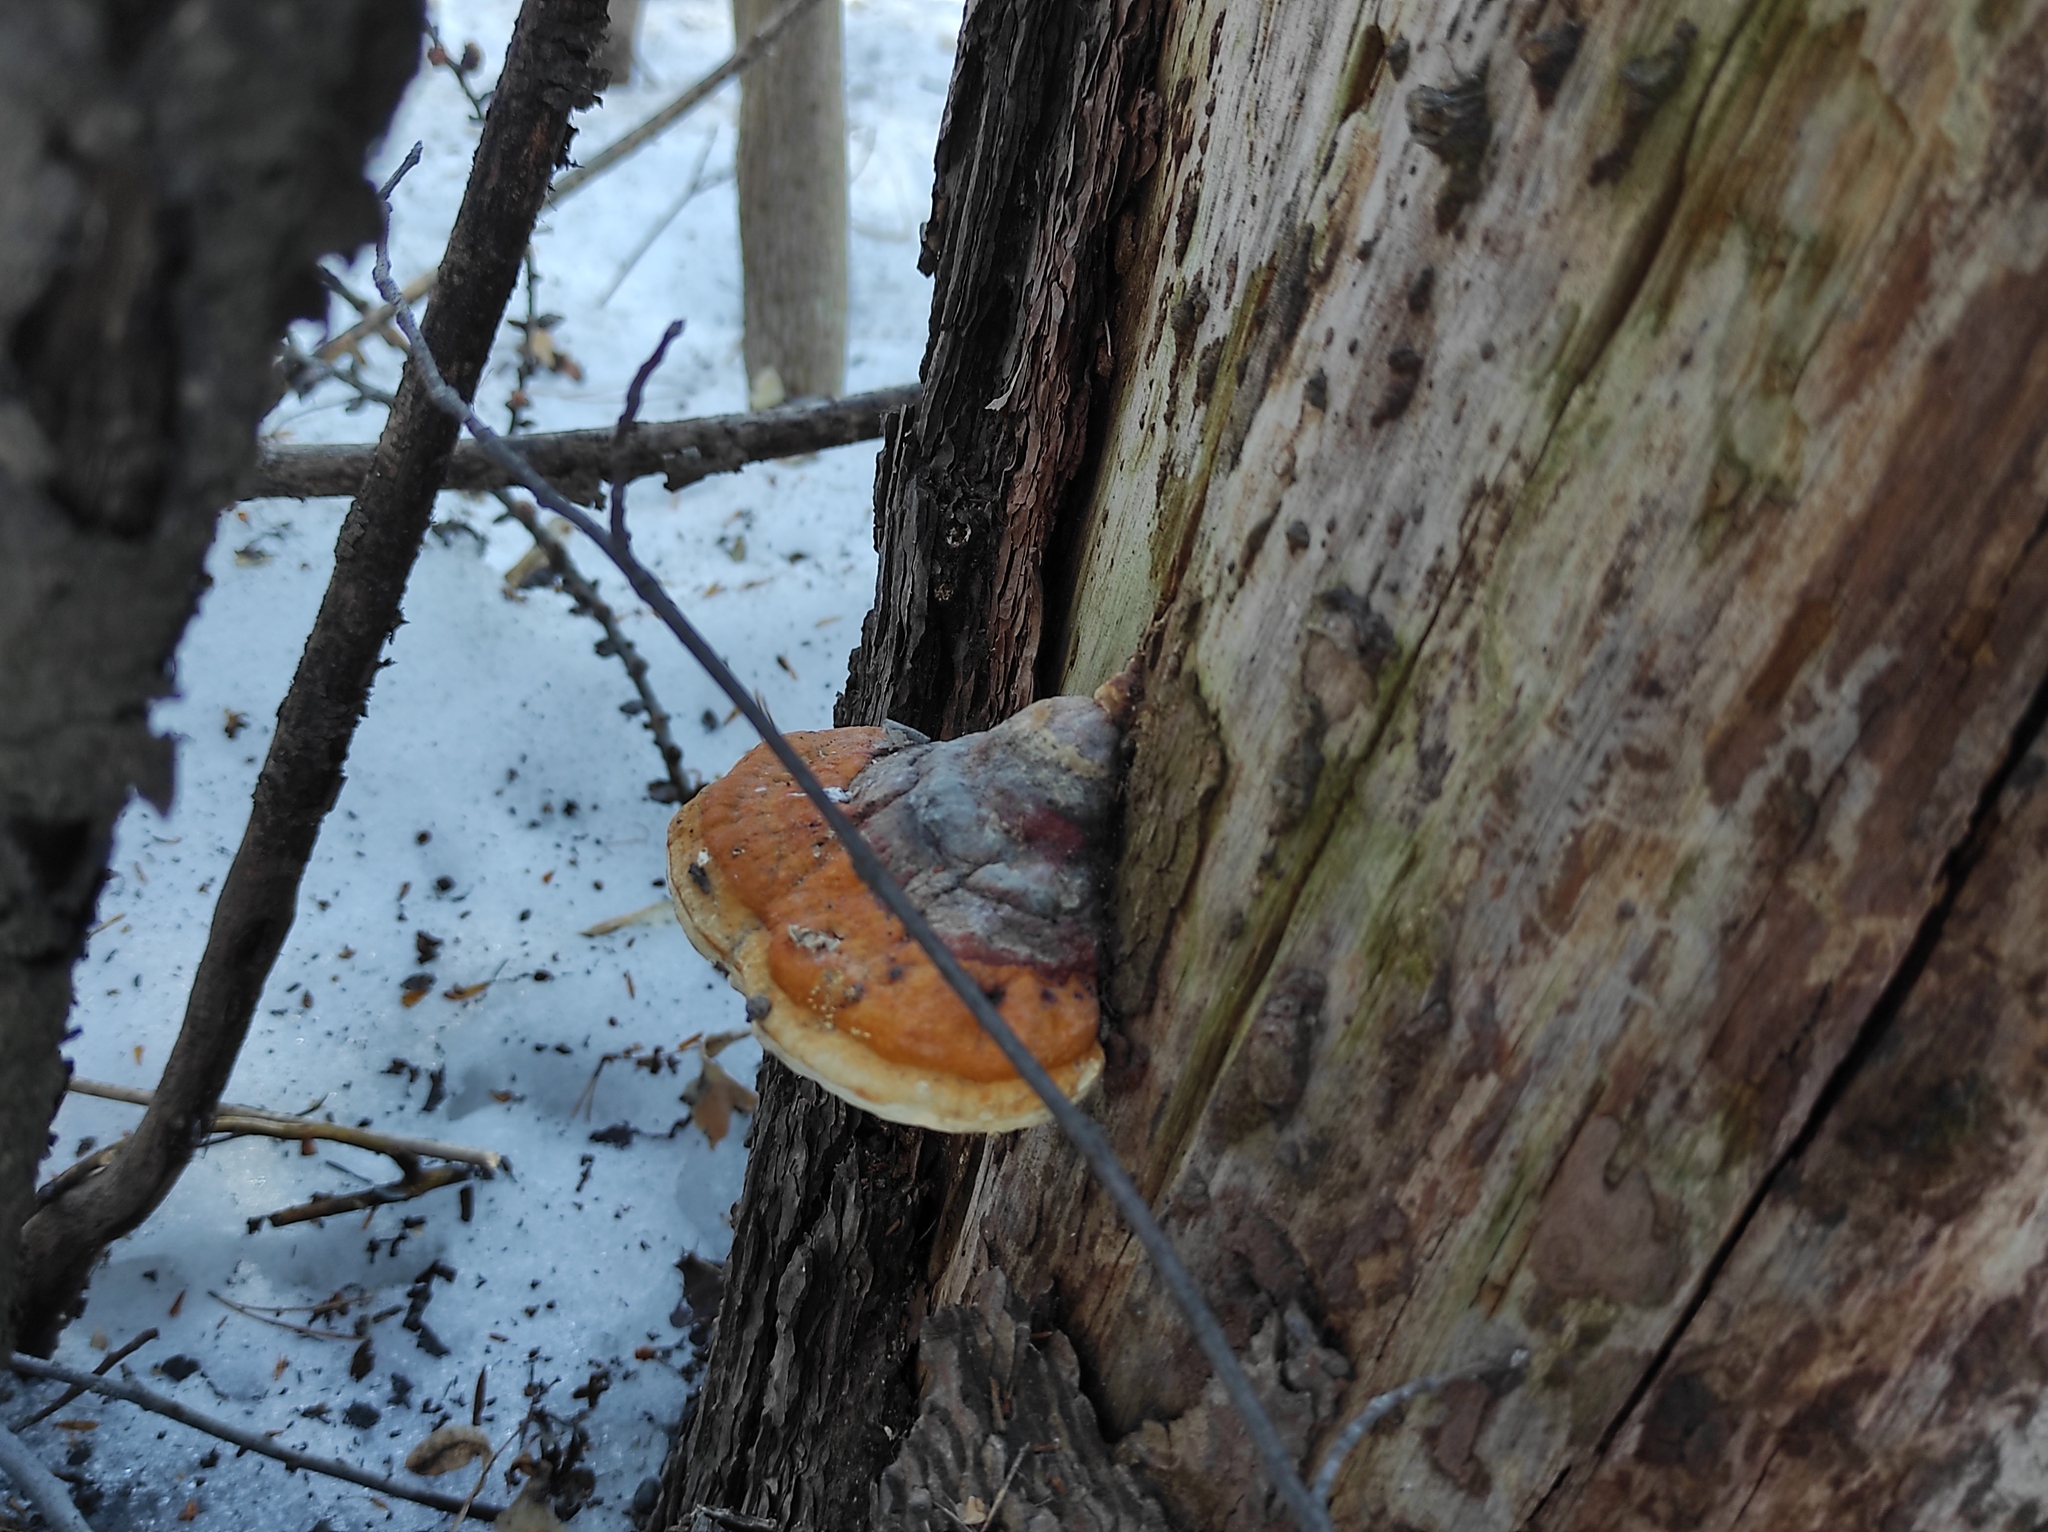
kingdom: Fungi
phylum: Basidiomycota
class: Agaricomycetes
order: Polyporales
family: Fomitopsidaceae
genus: Fomitopsis
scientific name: Fomitopsis pinicola
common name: Red-belted bracket
